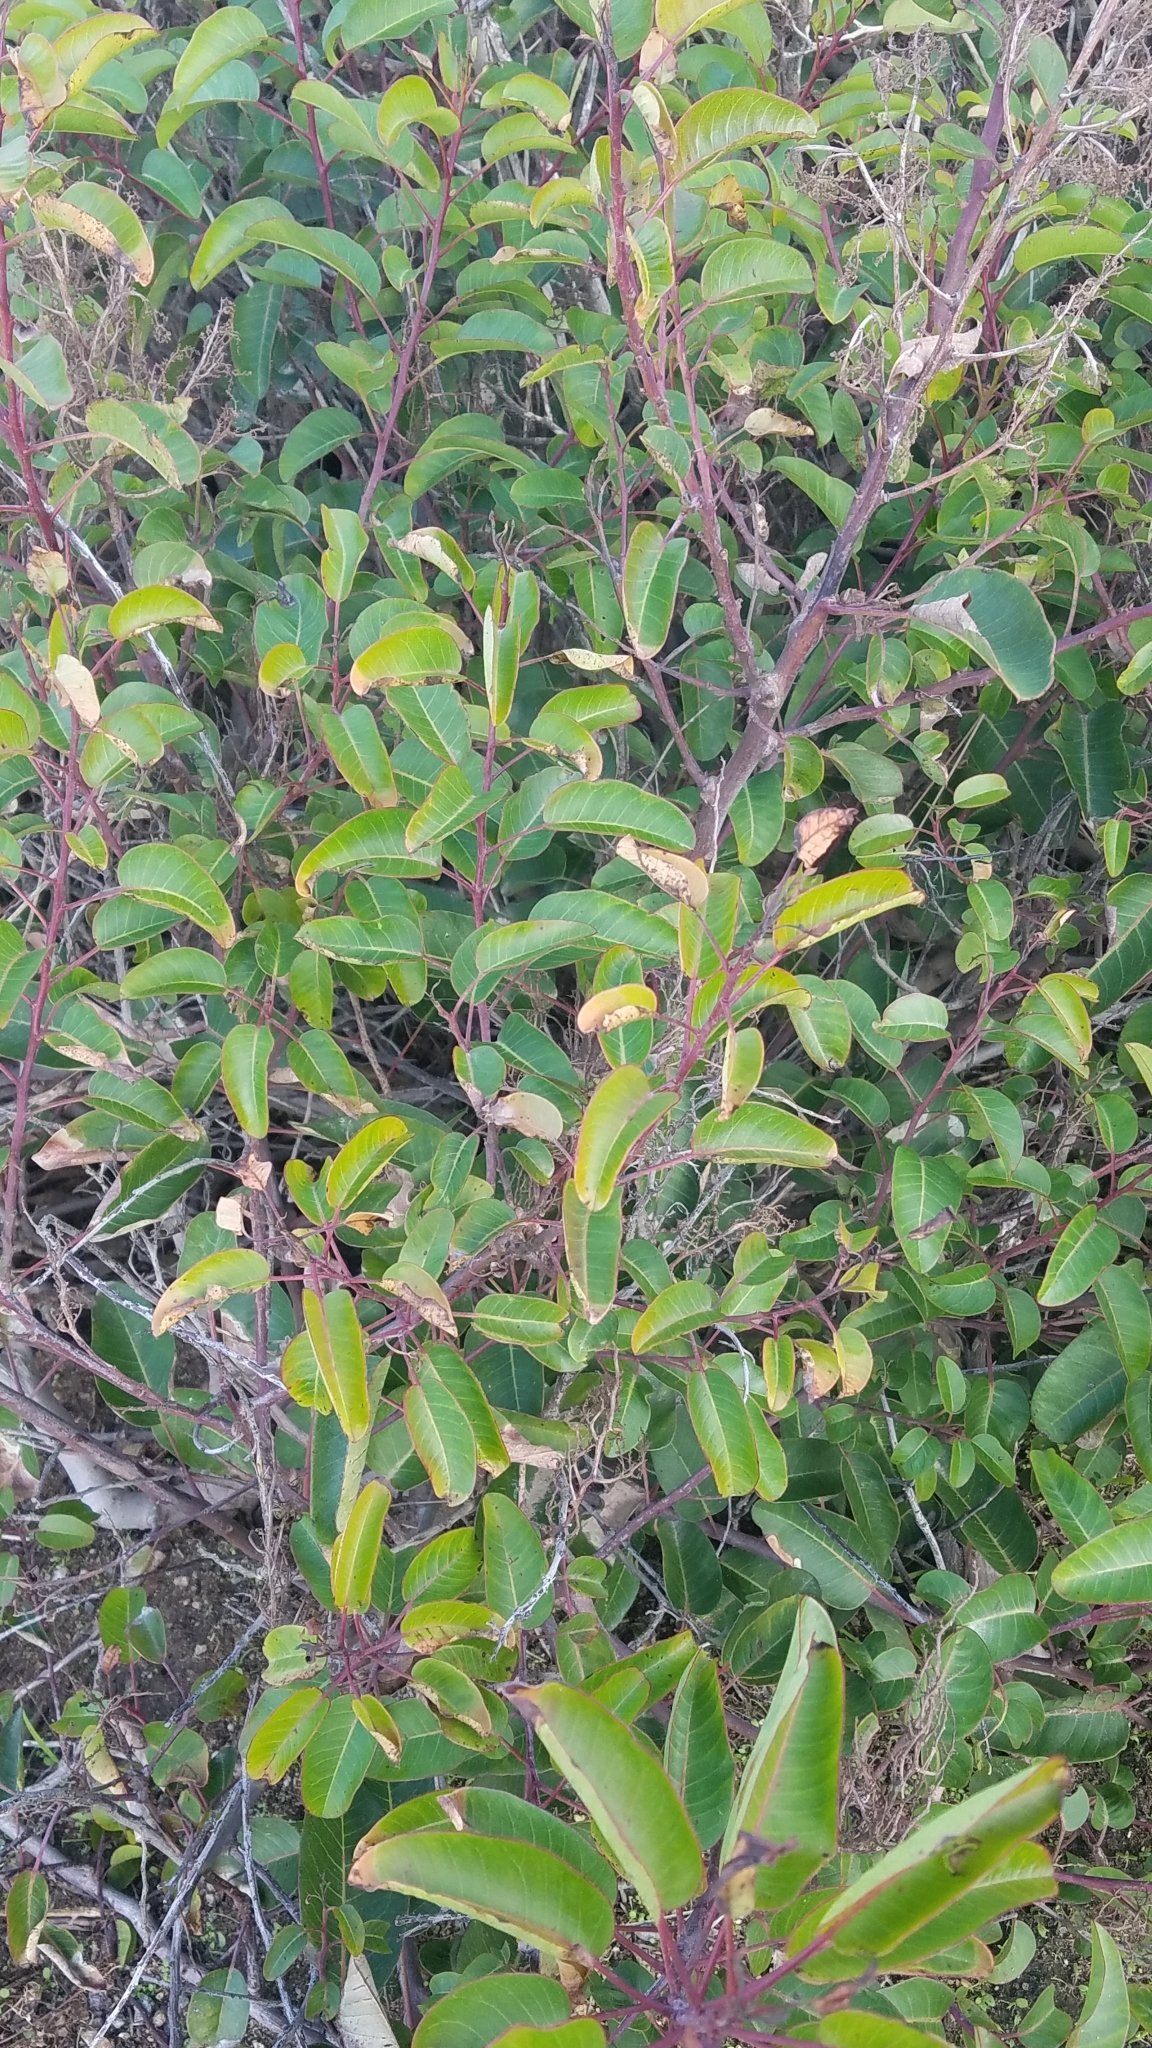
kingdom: Plantae
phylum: Tracheophyta
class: Magnoliopsida
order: Sapindales
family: Anacardiaceae
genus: Malosma
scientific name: Malosma laurina
